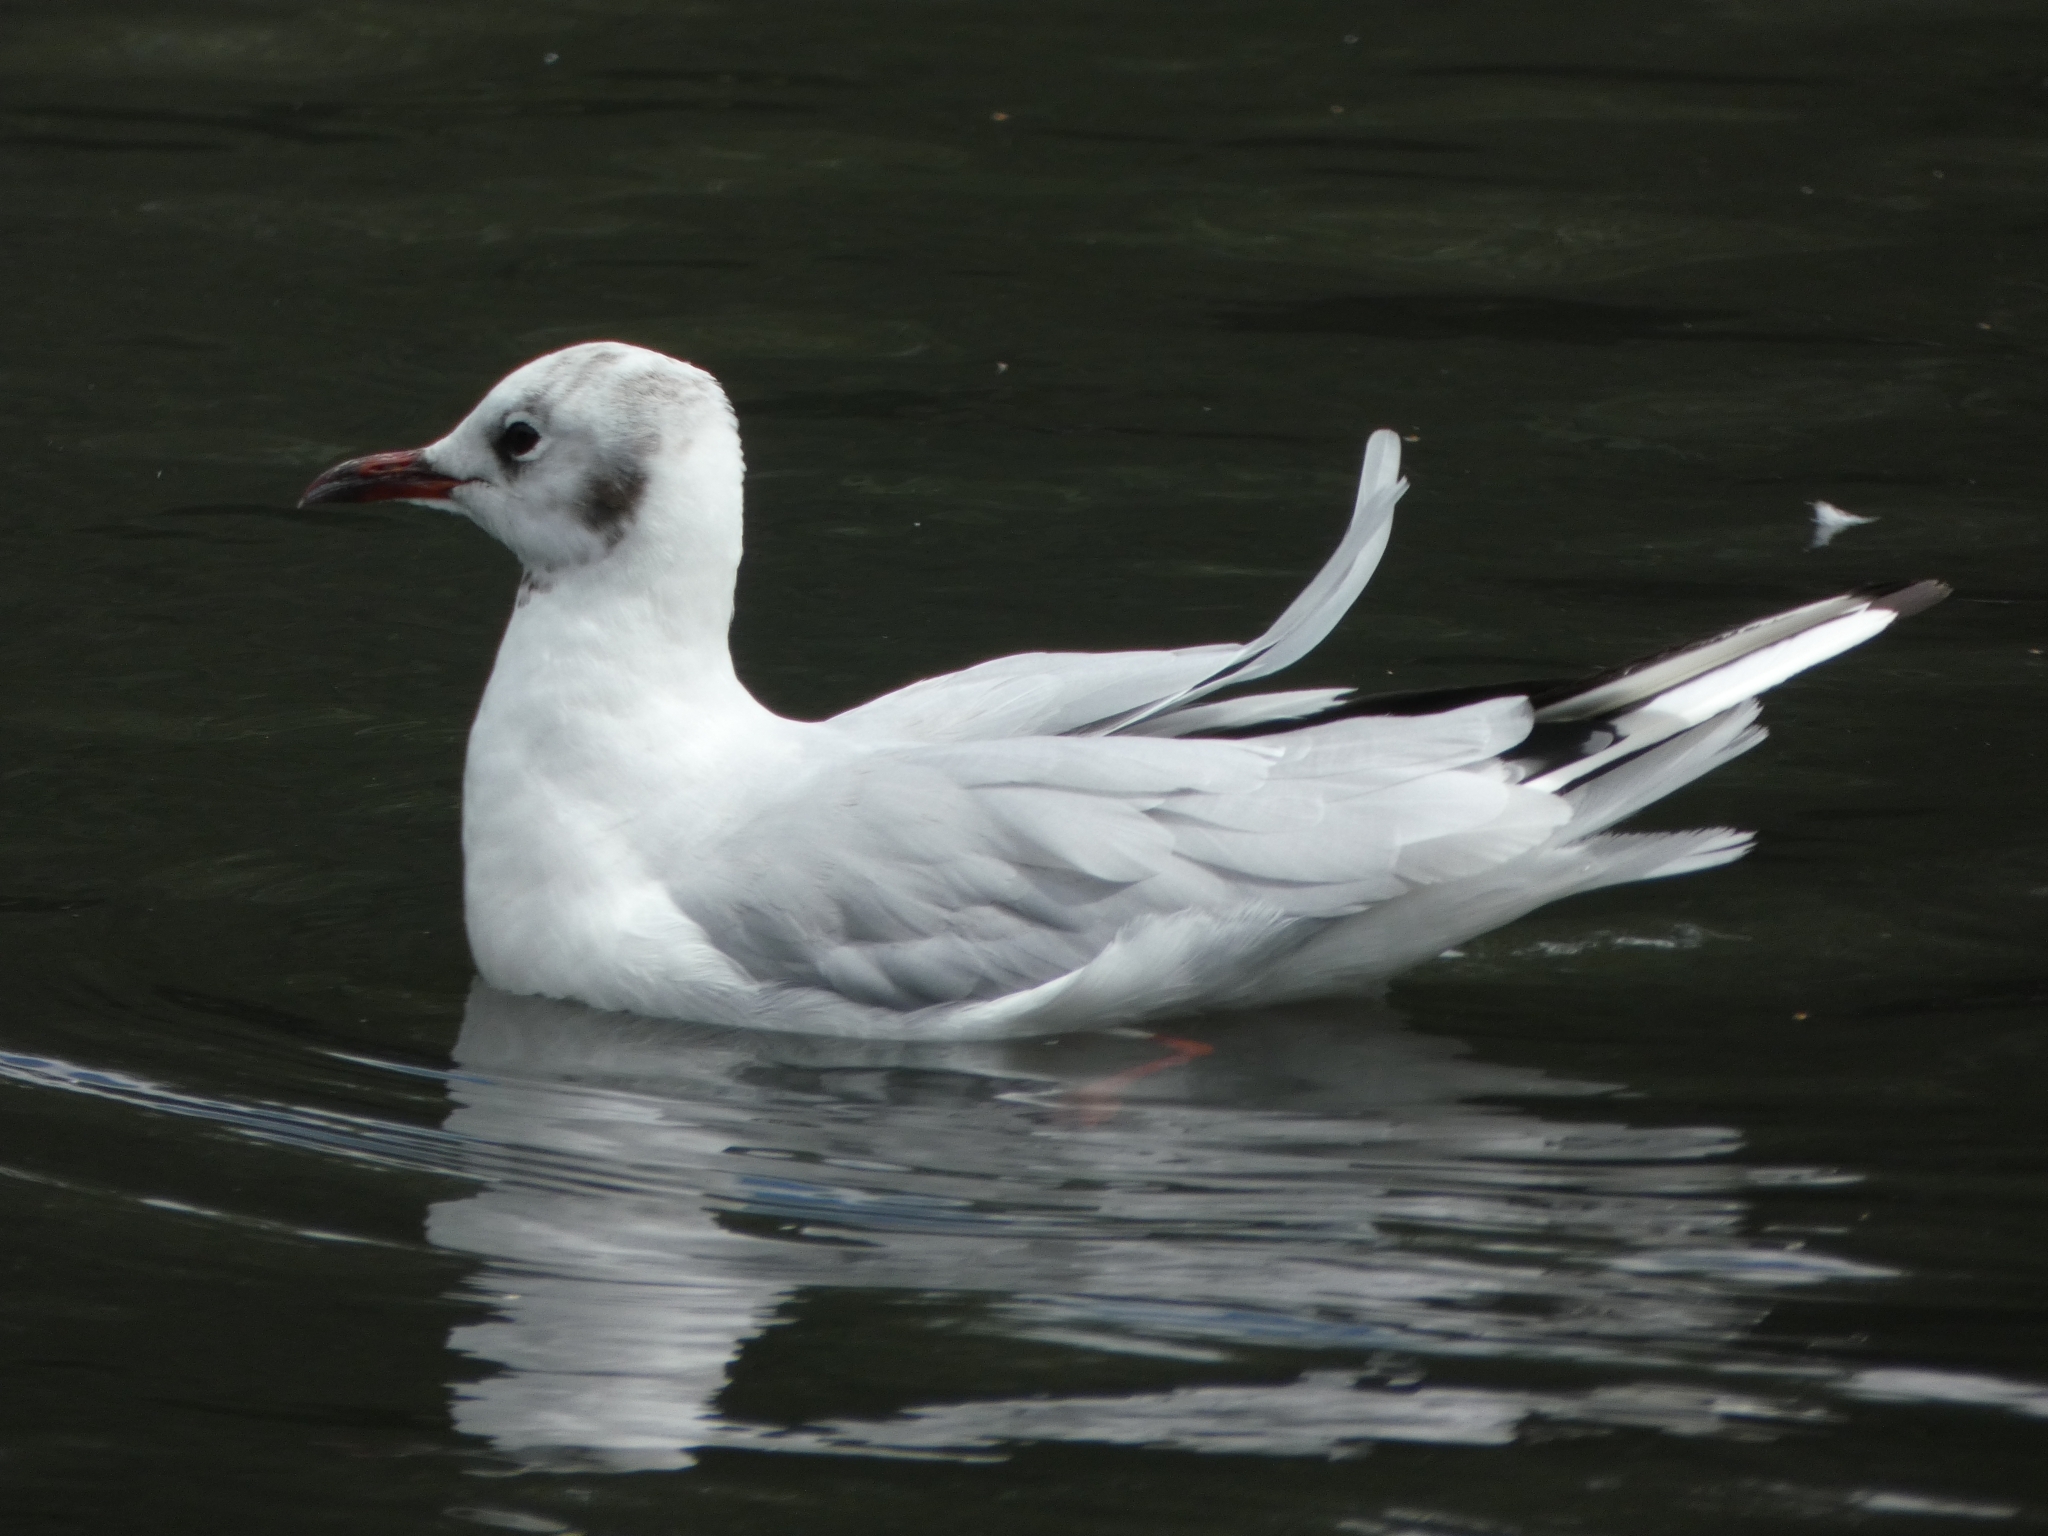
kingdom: Animalia
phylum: Chordata
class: Aves
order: Charadriiformes
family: Laridae
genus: Chroicocephalus
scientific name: Chroicocephalus ridibundus
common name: Black-headed gull
